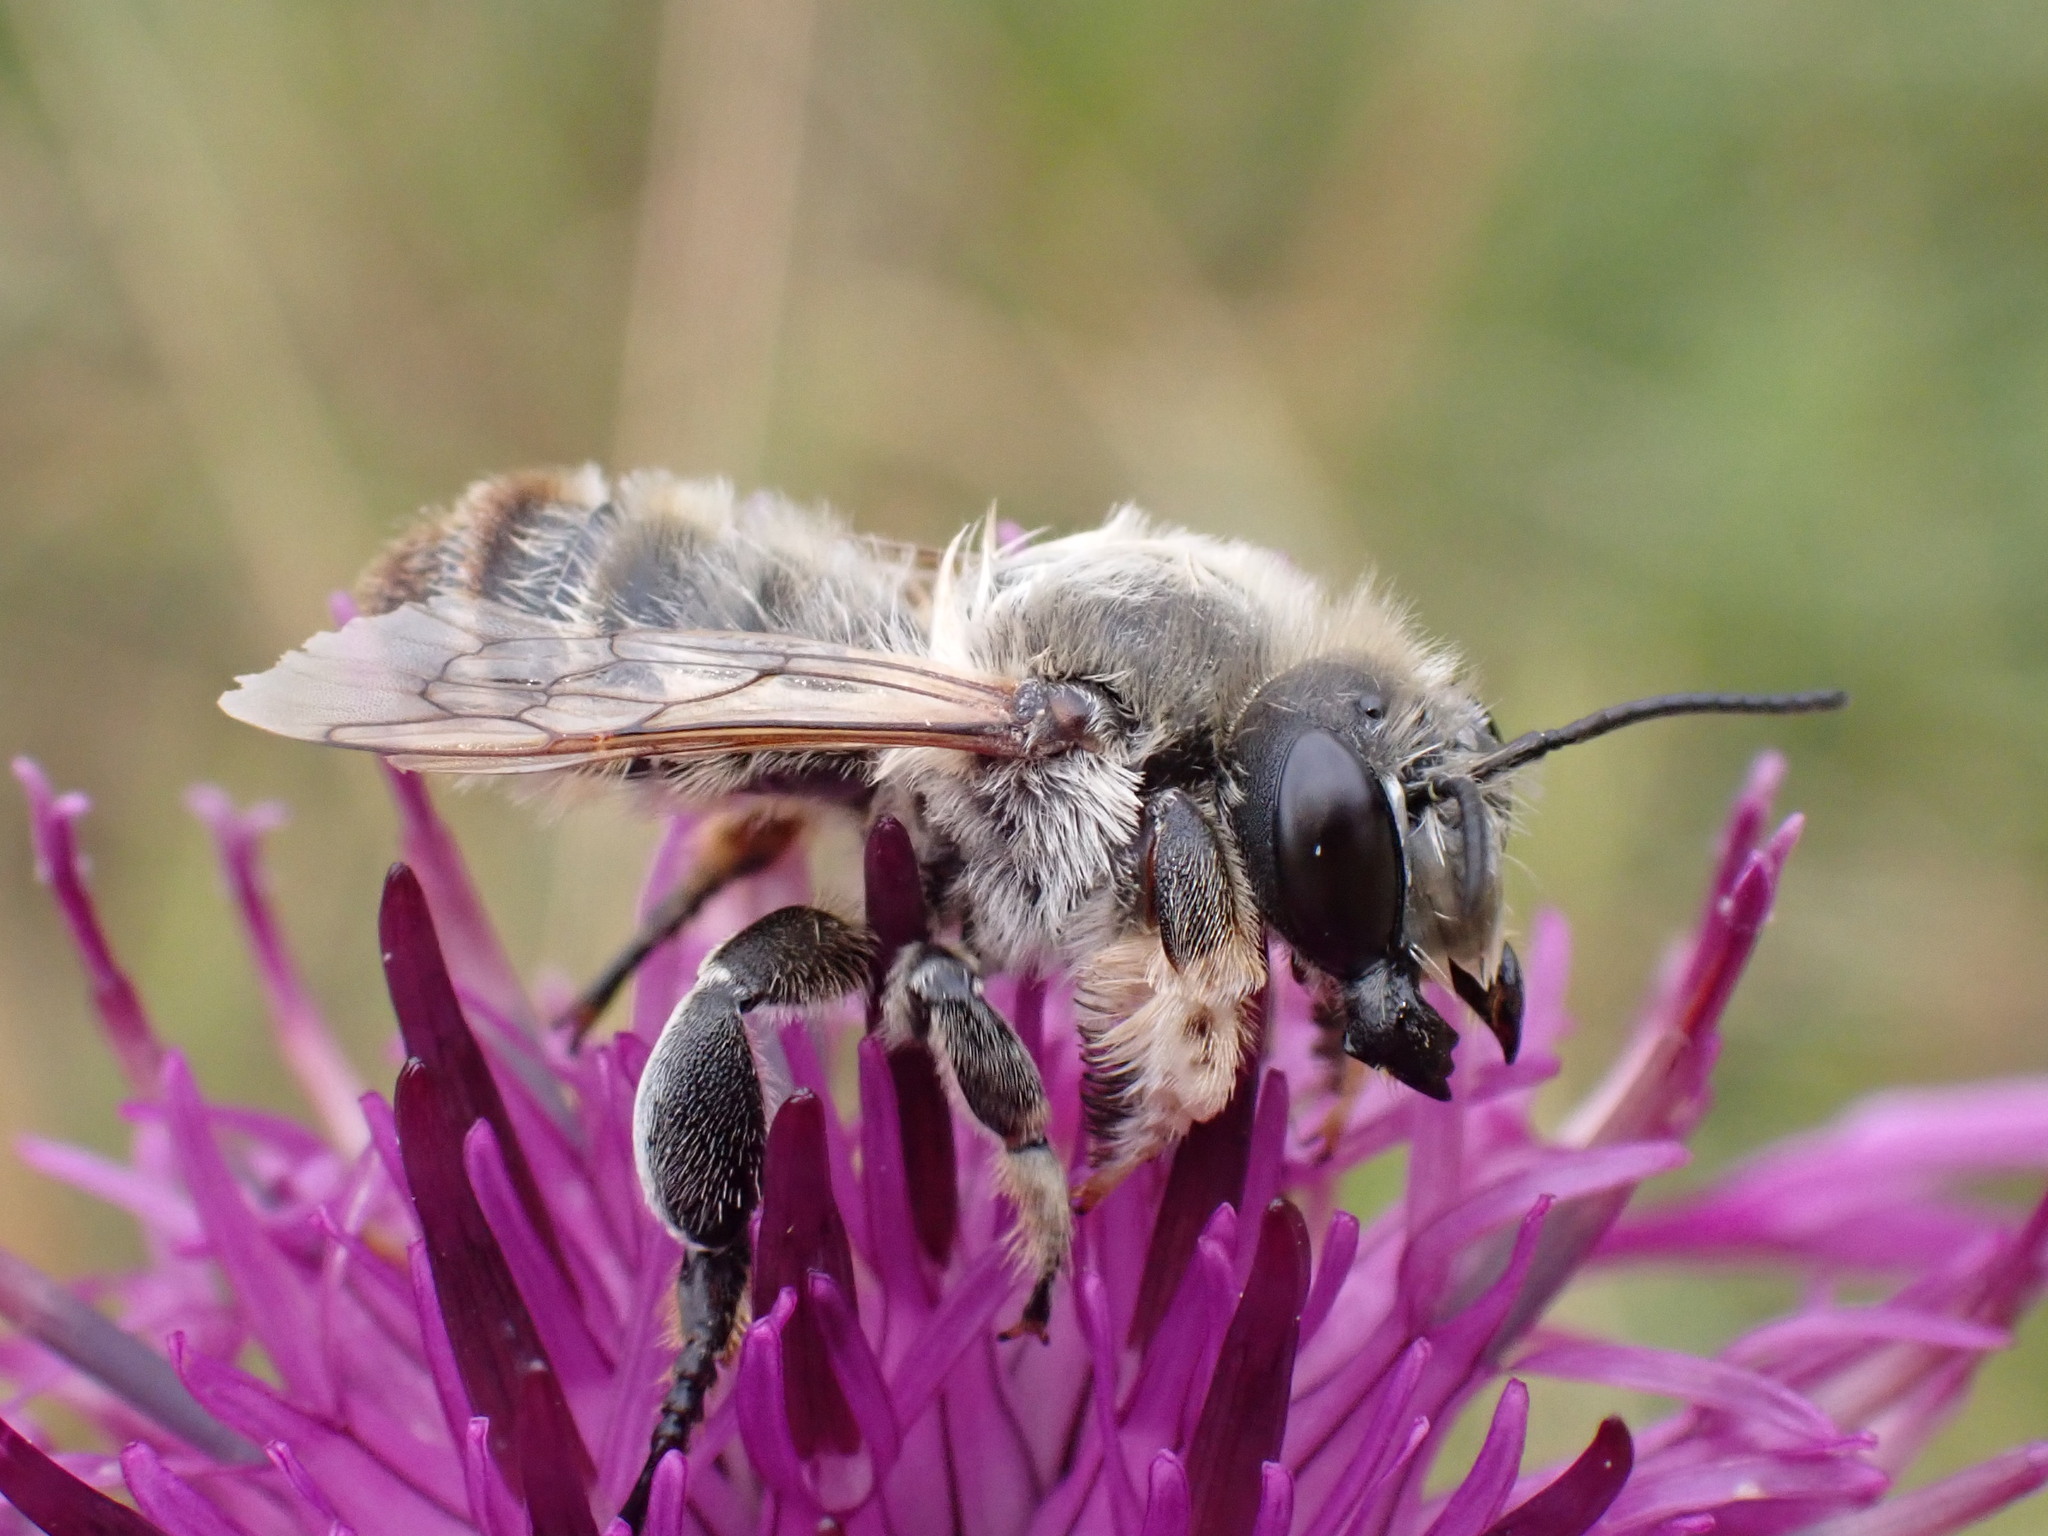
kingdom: Animalia
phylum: Arthropoda
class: Insecta
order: Hymenoptera
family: Megachilidae
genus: Megachile
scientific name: Megachile lagopoda
